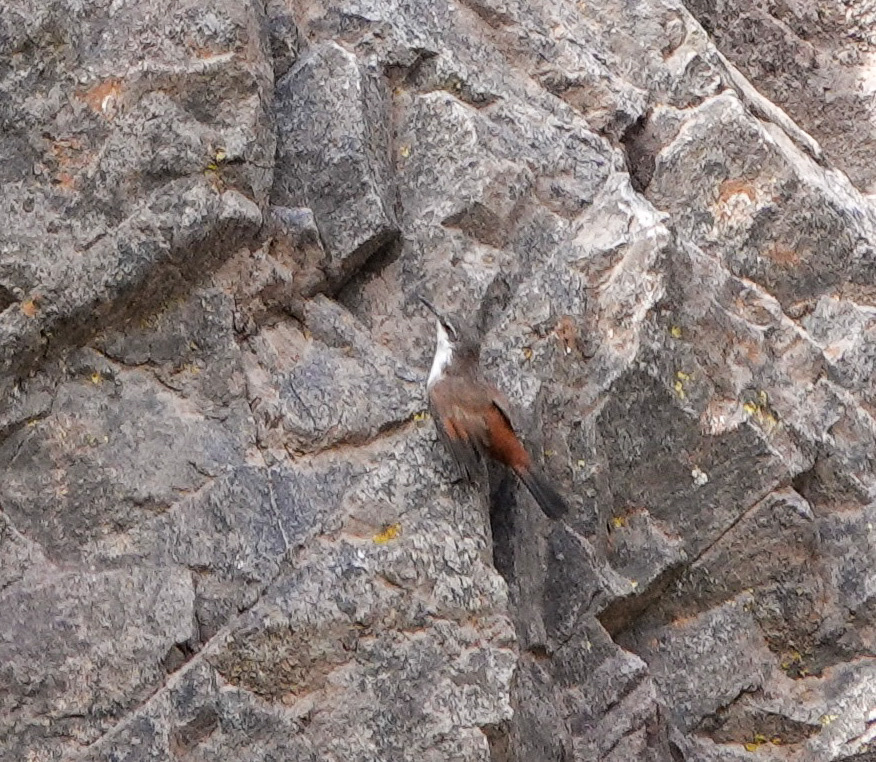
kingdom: Animalia
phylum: Chordata
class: Aves
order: Passeriformes
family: Furnariidae
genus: Chilia
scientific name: Chilia melanura
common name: Crag chilia
